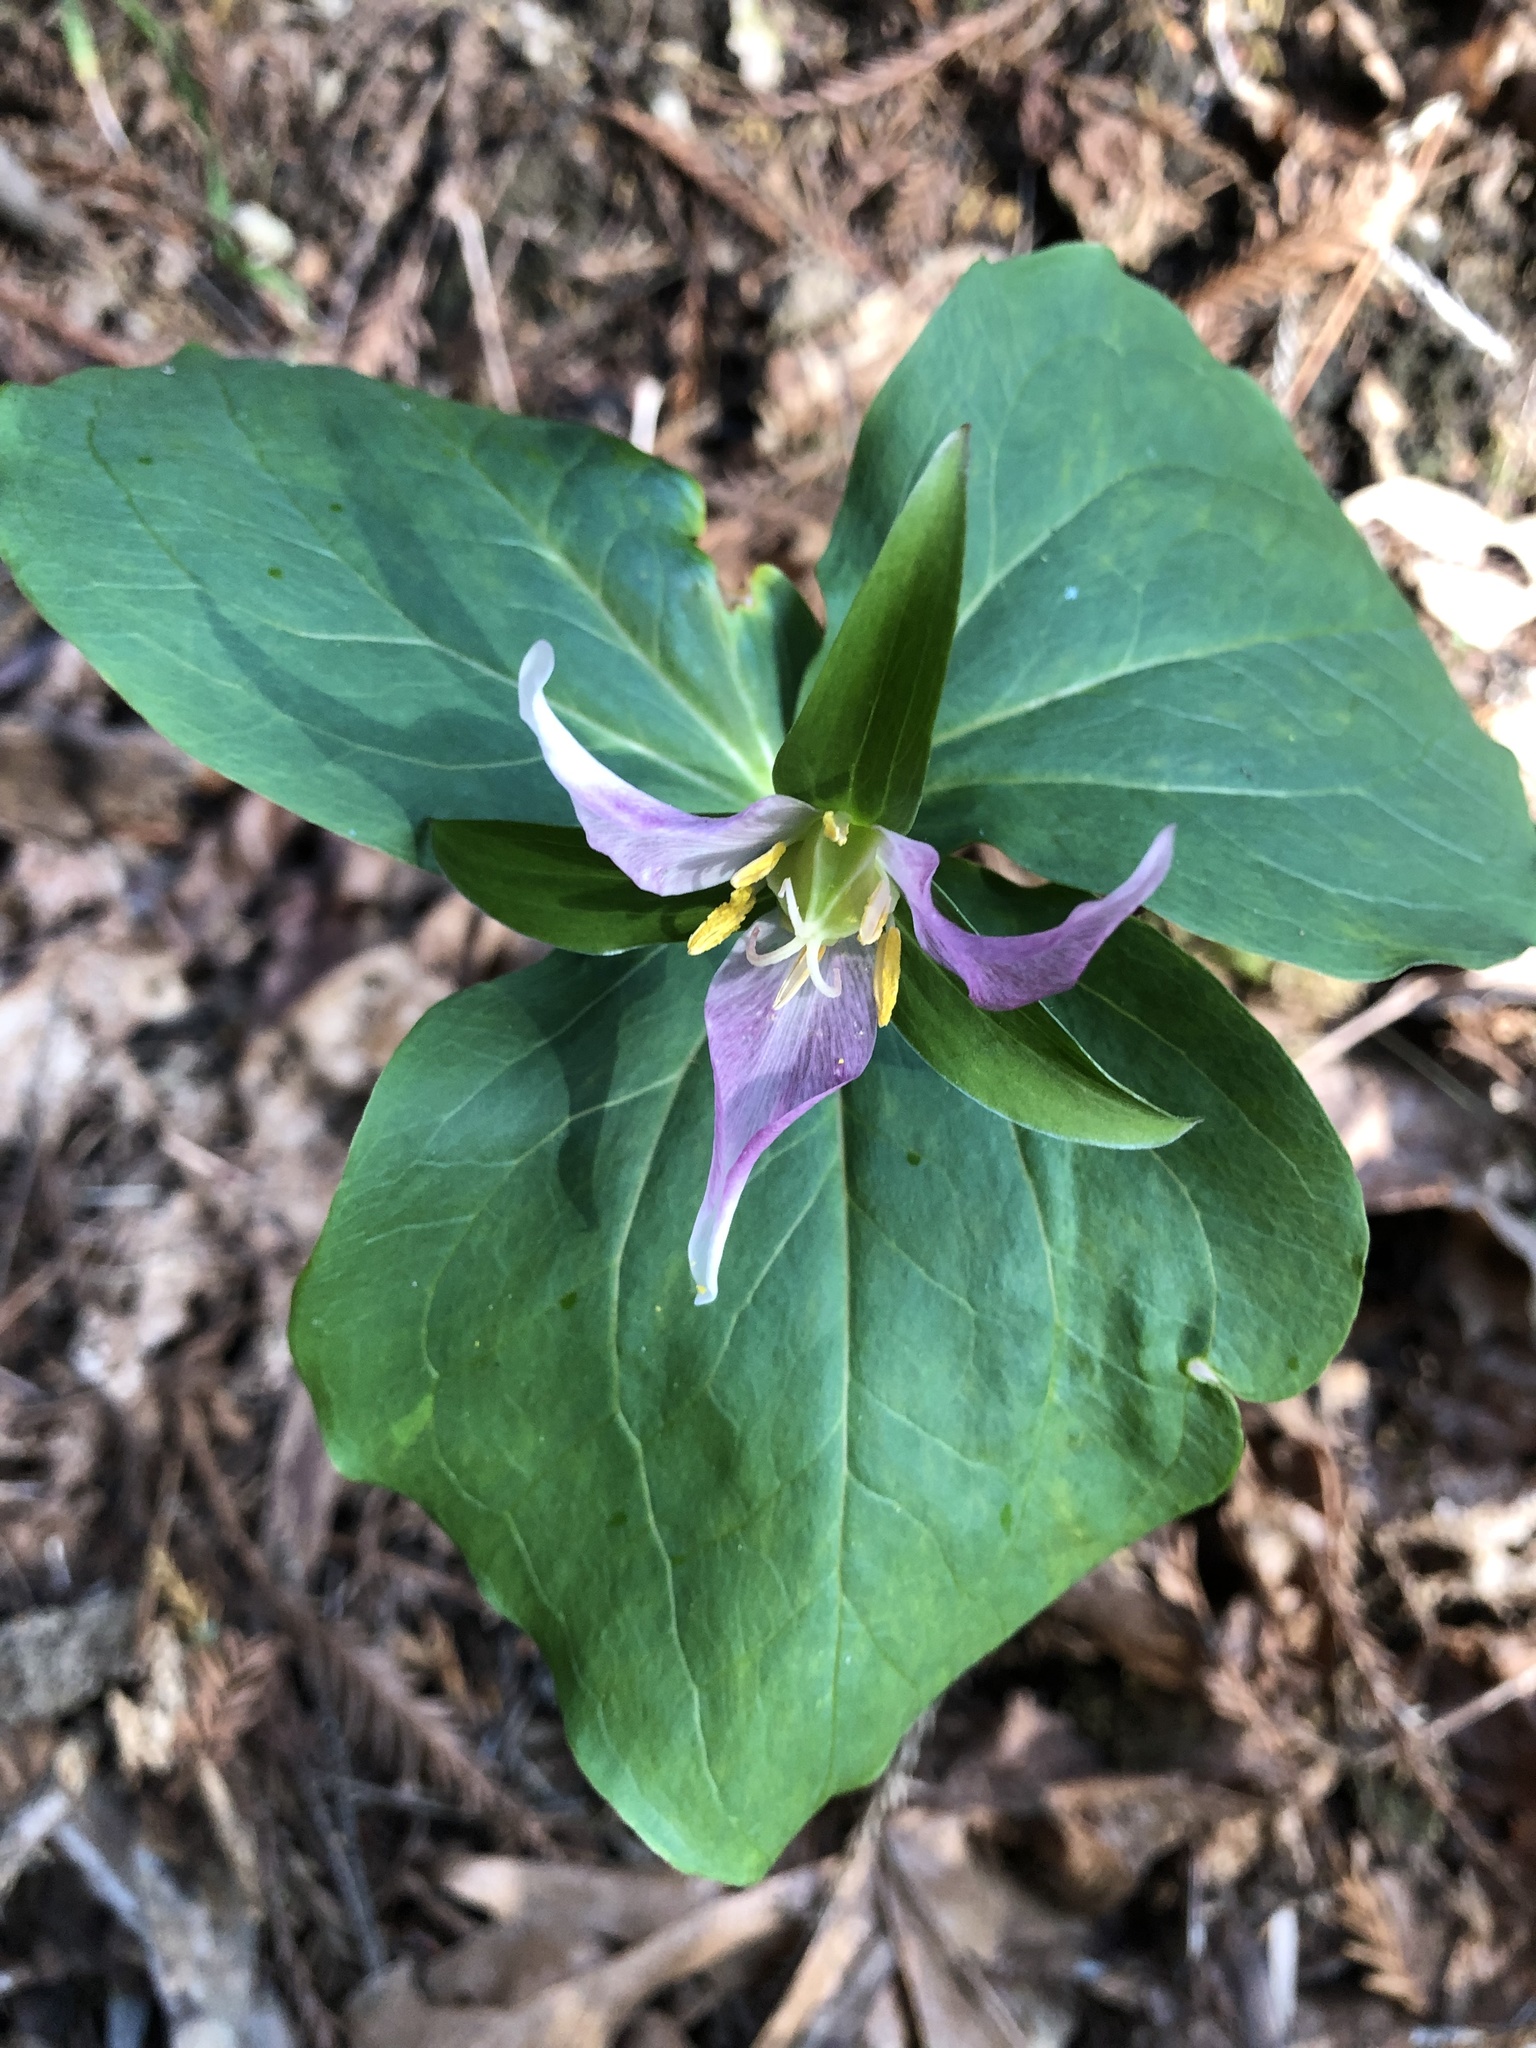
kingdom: Plantae
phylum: Tracheophyta
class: Liliopsida
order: Liliales
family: Melanthiaceae
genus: Trillium
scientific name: Trillium ovatum
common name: Pacific trillium
